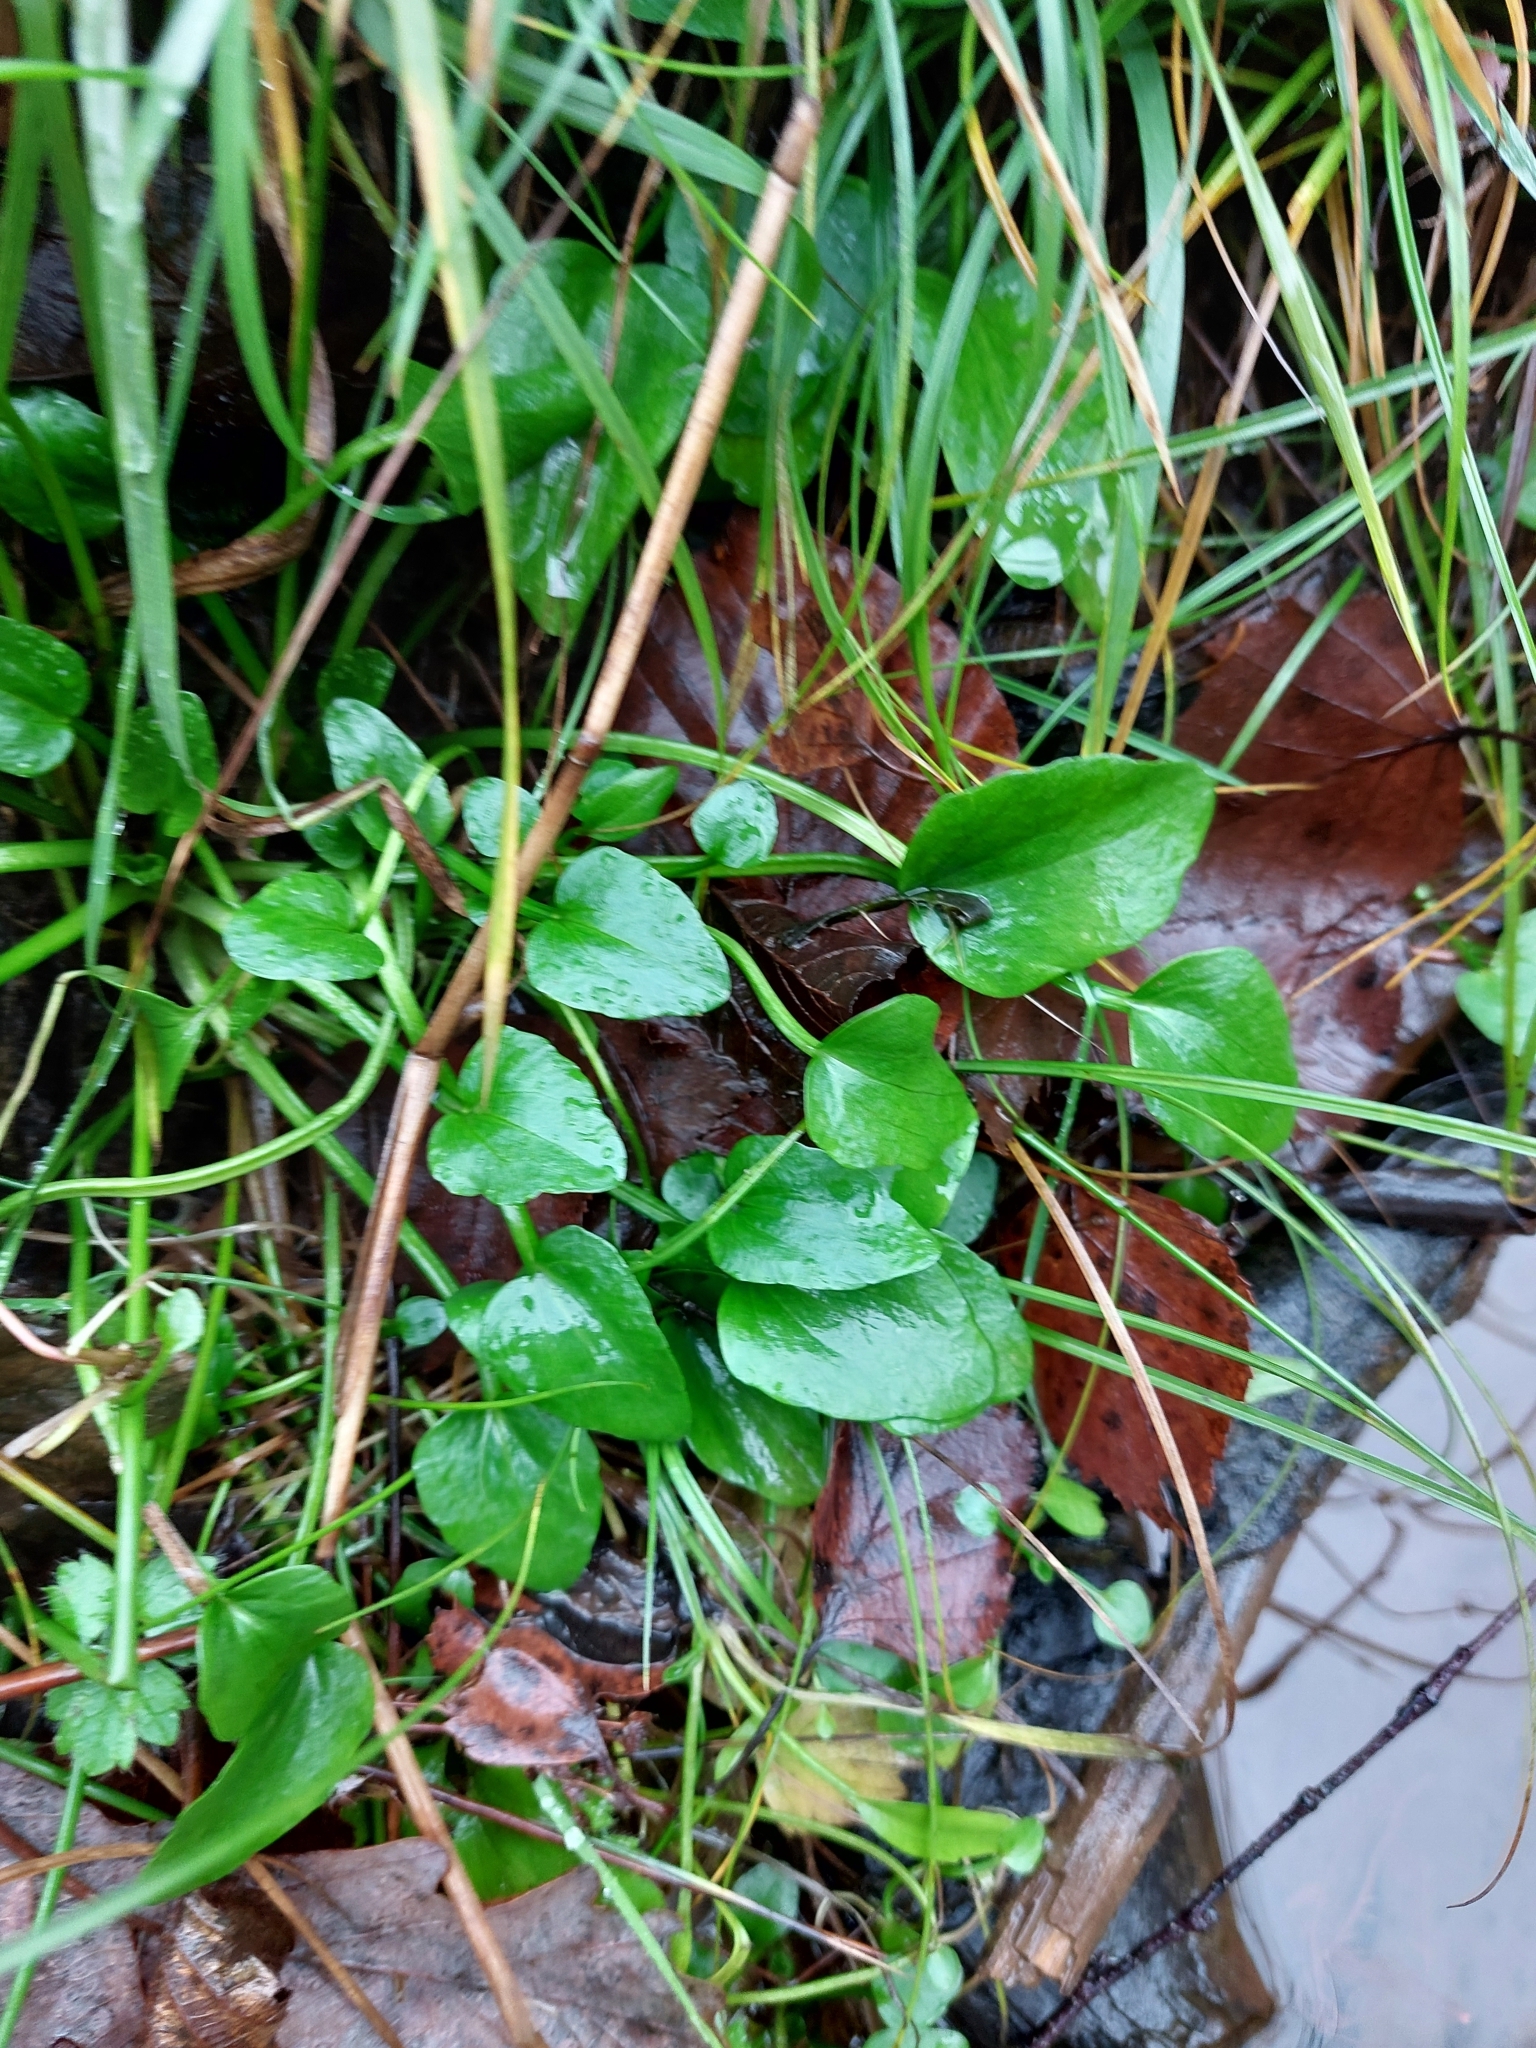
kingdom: Plantae
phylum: Tracheophyta
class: Magnoliopsida
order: Ranunculales
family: Ranunculaceae
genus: Ranunculus
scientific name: Ranunculus flammula
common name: Lesser spearwort
